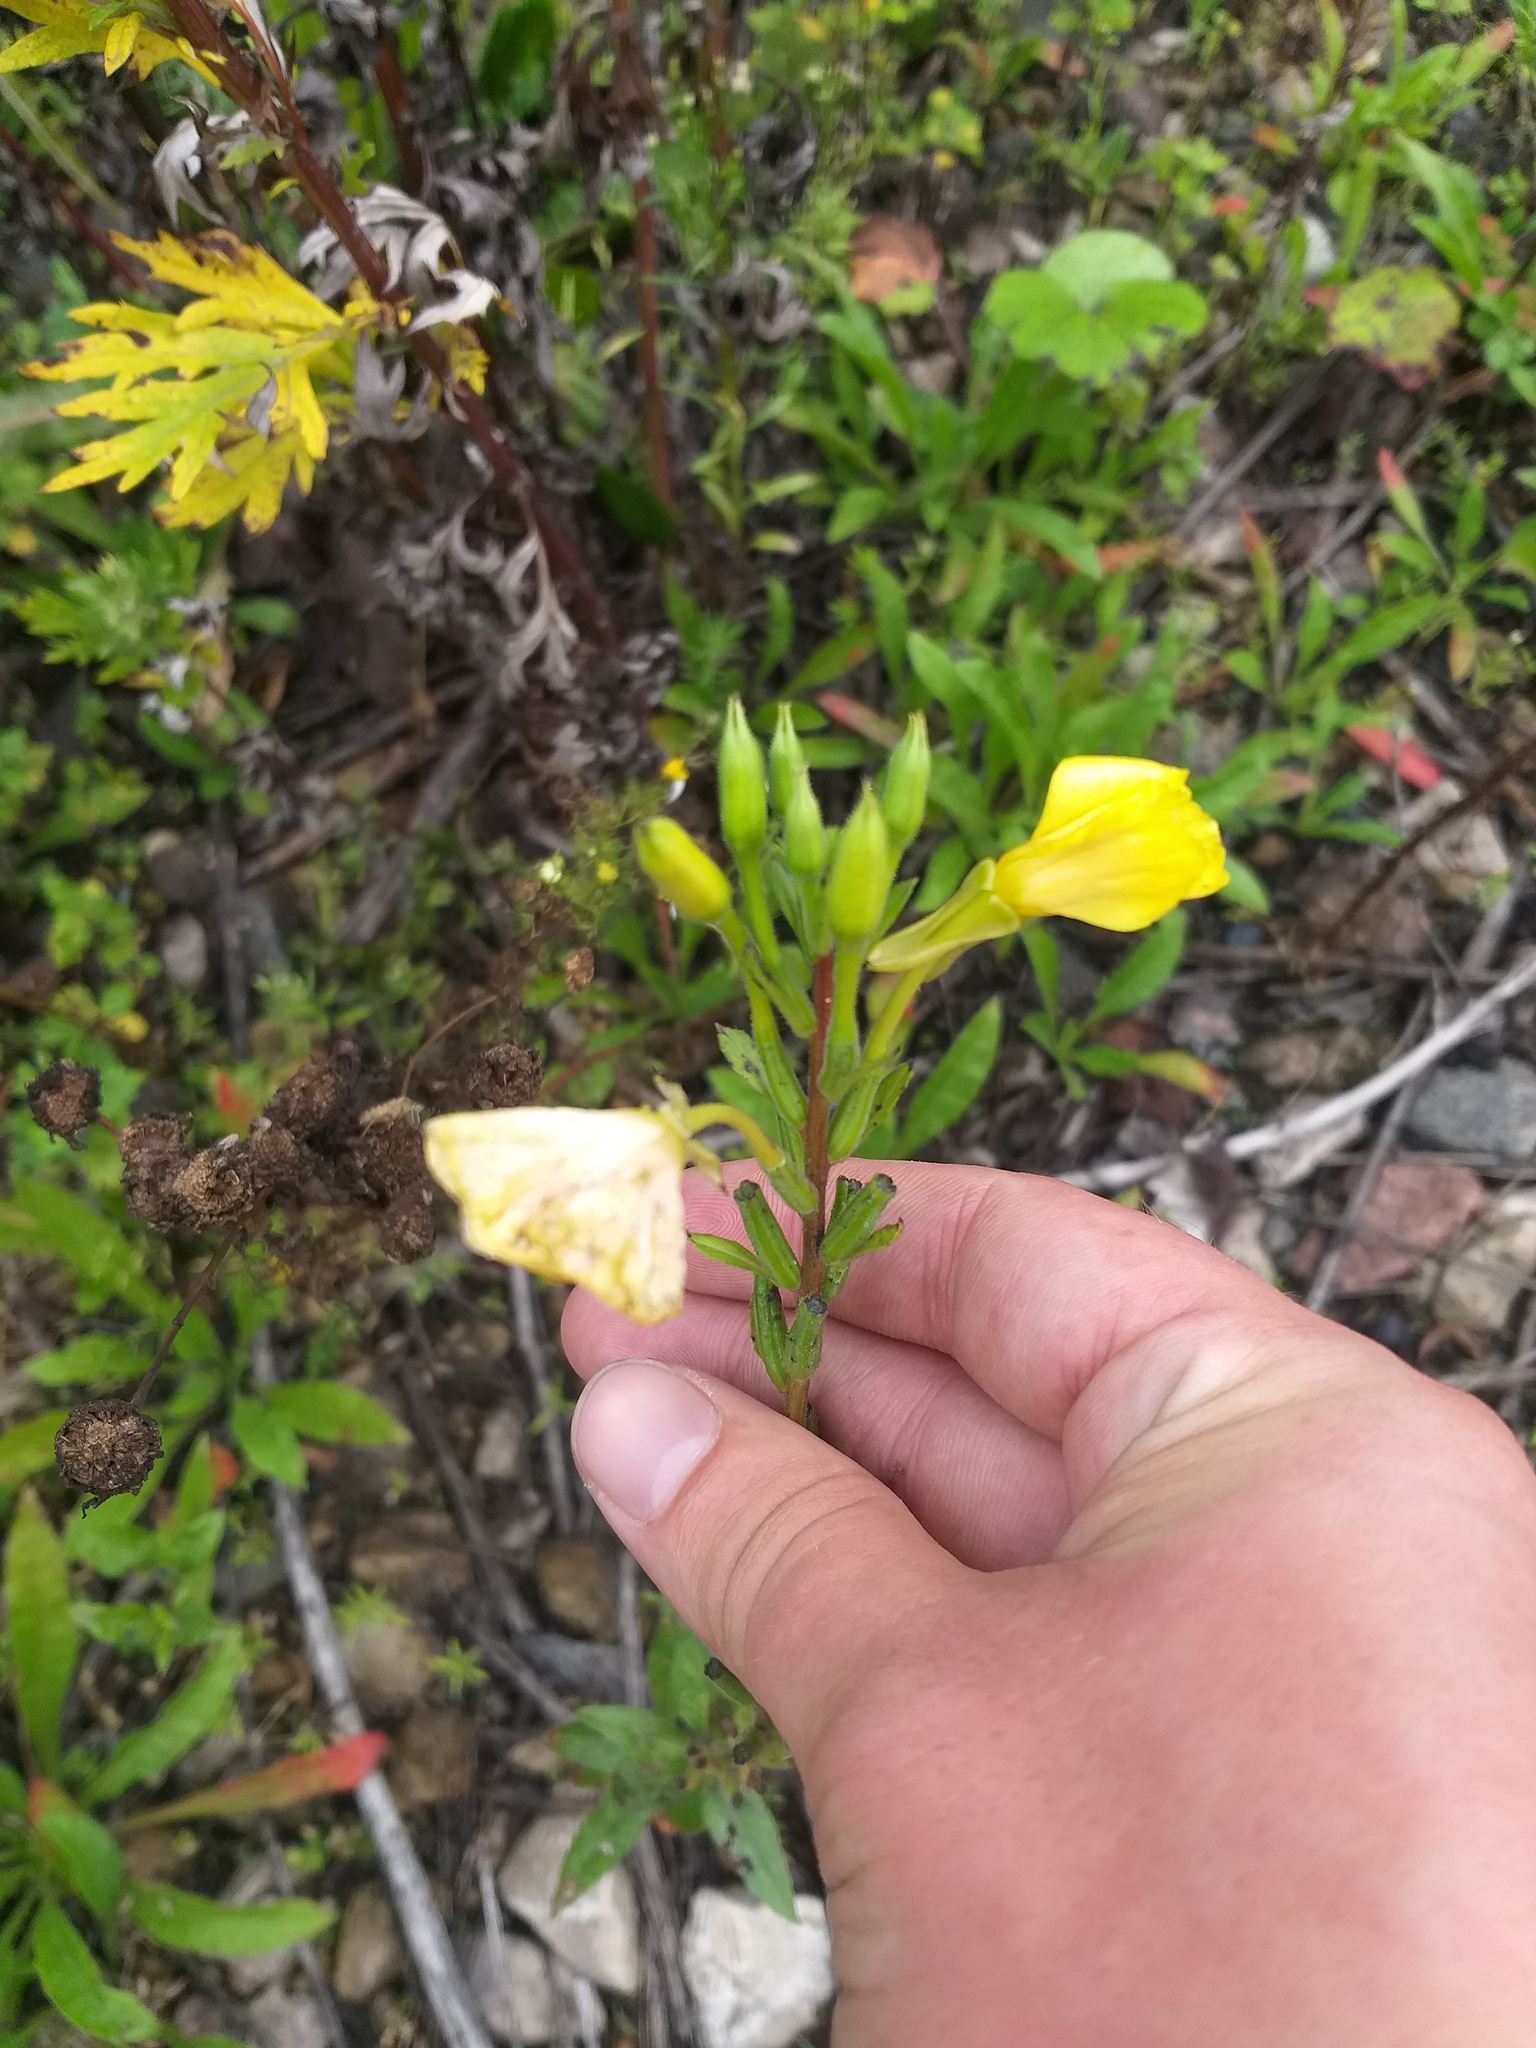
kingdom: Plantae
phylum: Tracheophyta
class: Magnoliopsida
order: Myrtales
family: Onagraceae
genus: Oenothera
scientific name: Oenothera rubricaulis
